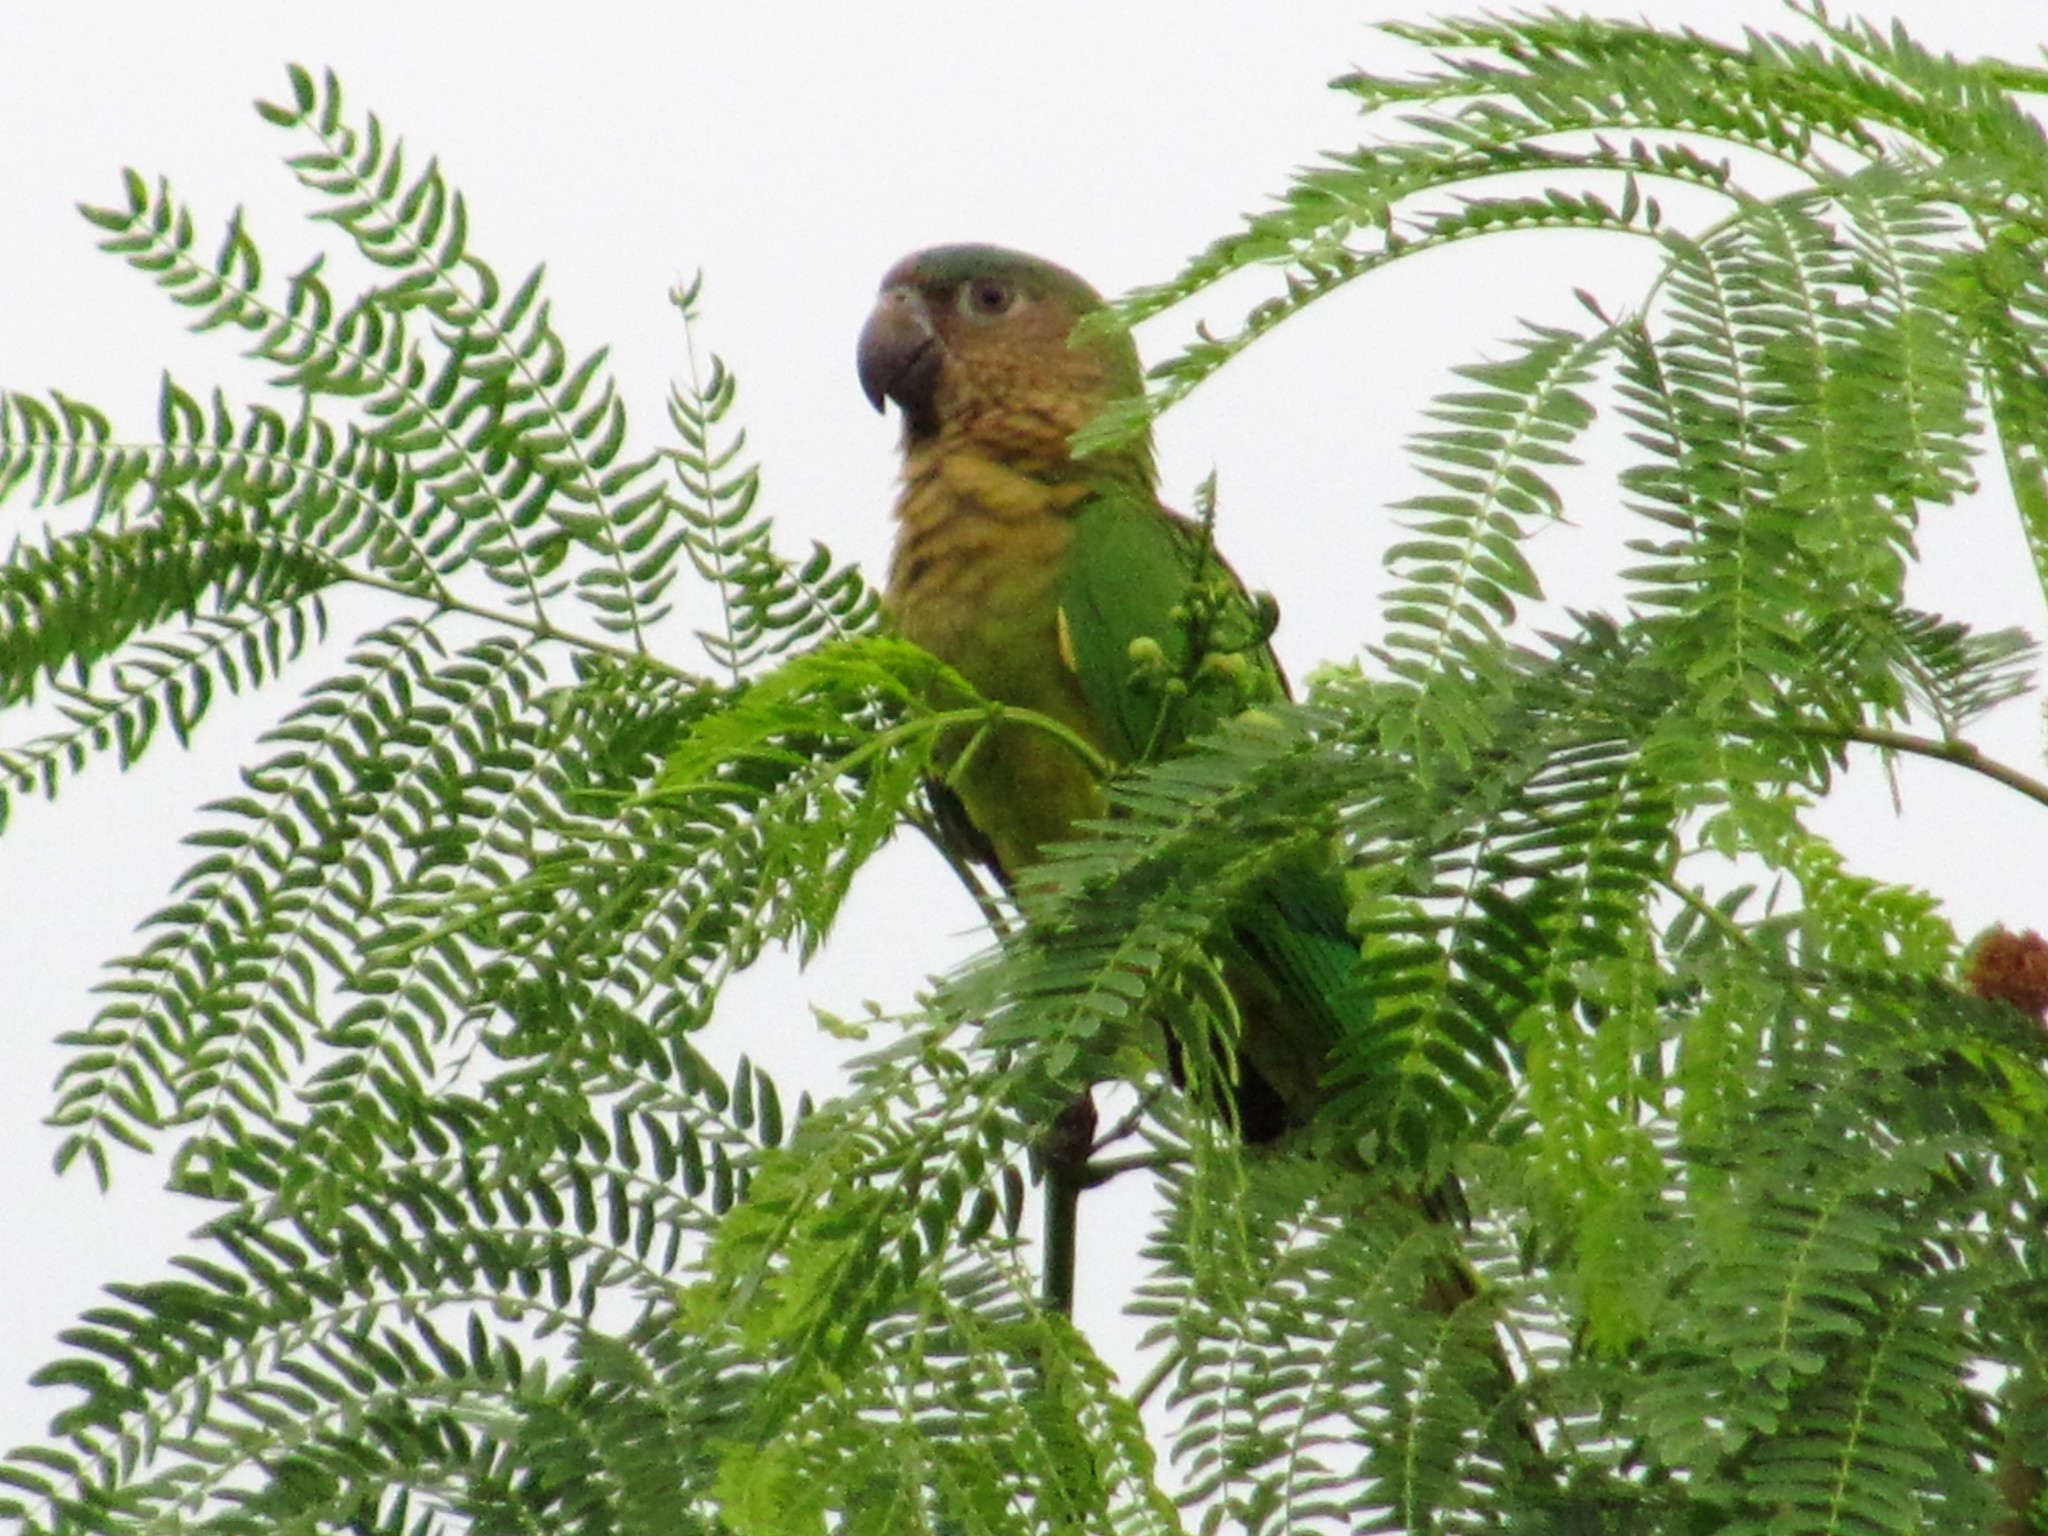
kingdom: Animalia
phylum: Chordata
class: Aves
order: Psittaciformes
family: Psittacidae
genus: Aratinga
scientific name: Aratinga pertinax
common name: Brown-throated parakeet
